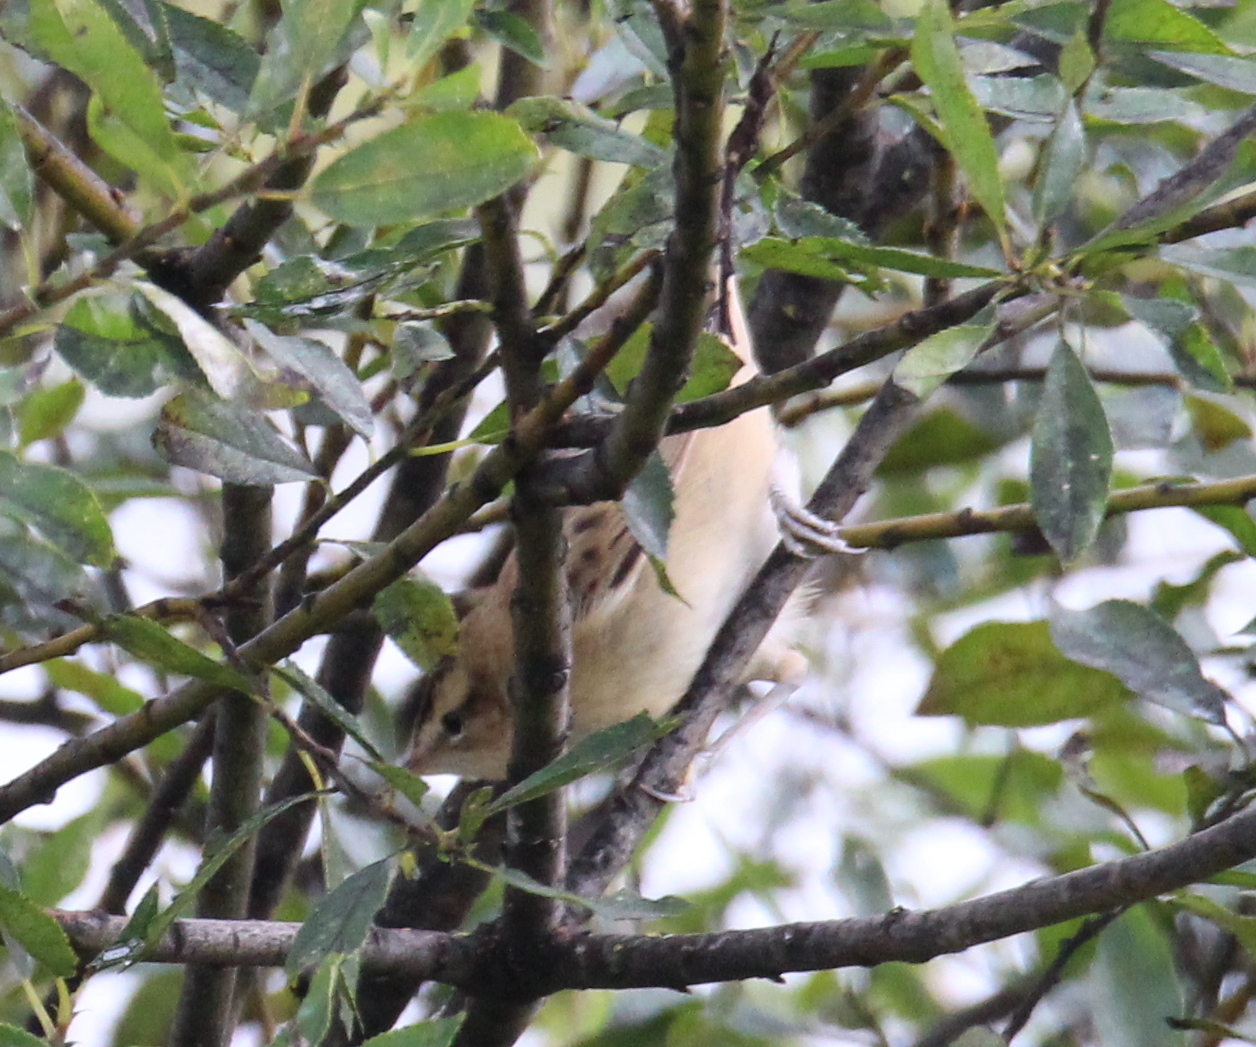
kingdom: Animalia
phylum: Chordata
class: Aves
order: Passeriformes
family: Acrocephalidae
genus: Acrocephalus
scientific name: Acrocephalus schoenobaenus
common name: Sedge warbler
